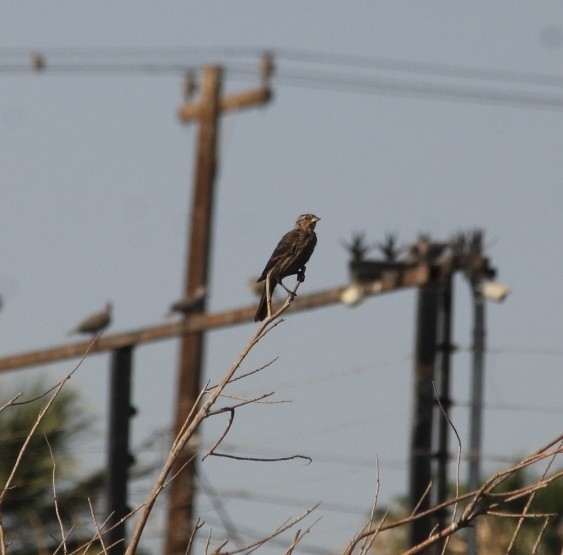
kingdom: Animalia
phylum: Chordata
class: Aves
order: Passeriformes
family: Icteridae
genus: Agelaius
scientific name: Agelaius phoeniceus
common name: Red-winged blackbird
